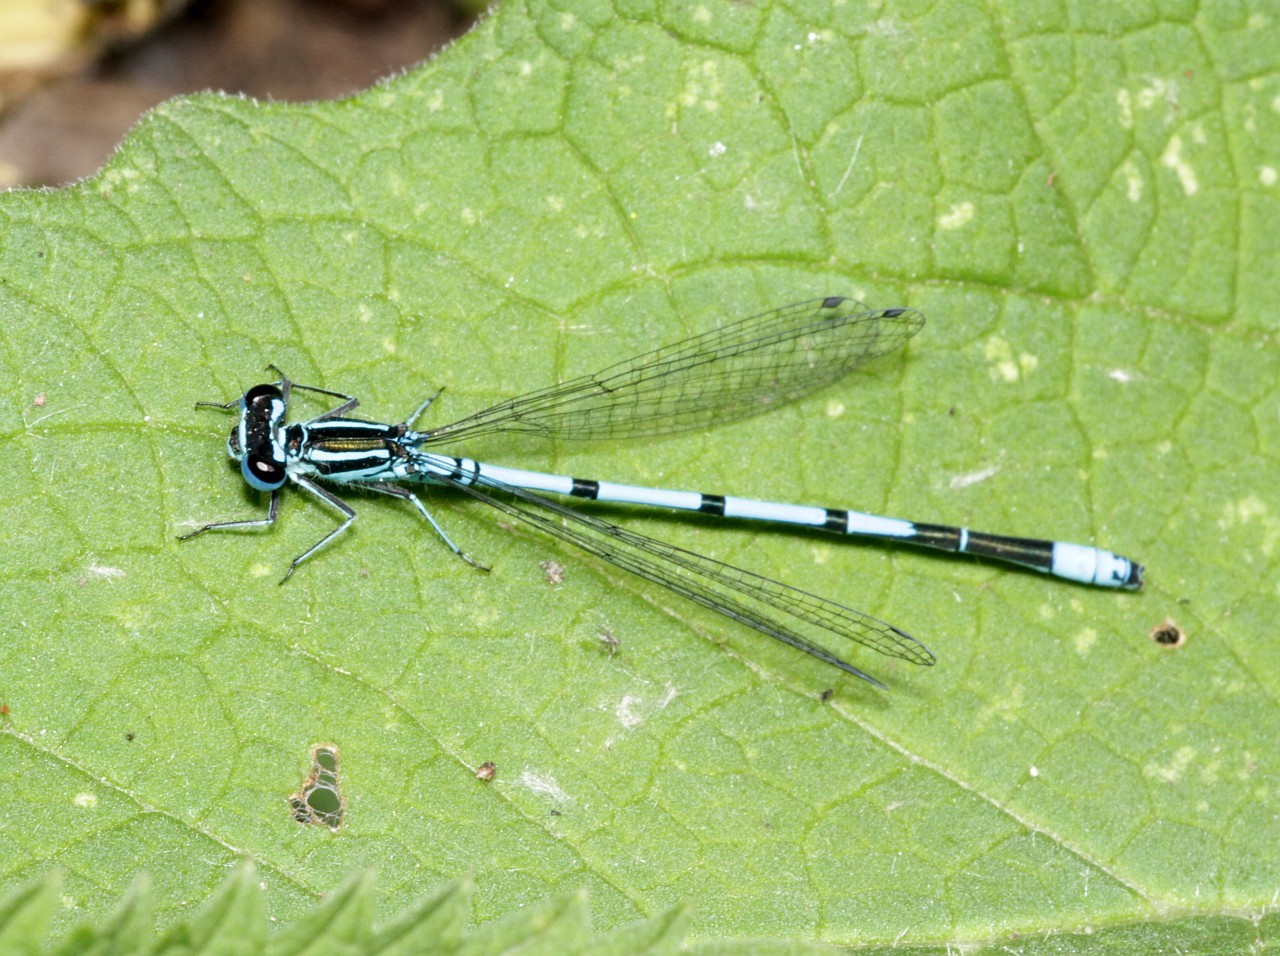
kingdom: Animalia
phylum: Arthropoda
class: Insecta
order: Odonata
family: Coenagrionidae
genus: Coenagrion
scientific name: Coenagrion puella
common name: Azure damselfly
